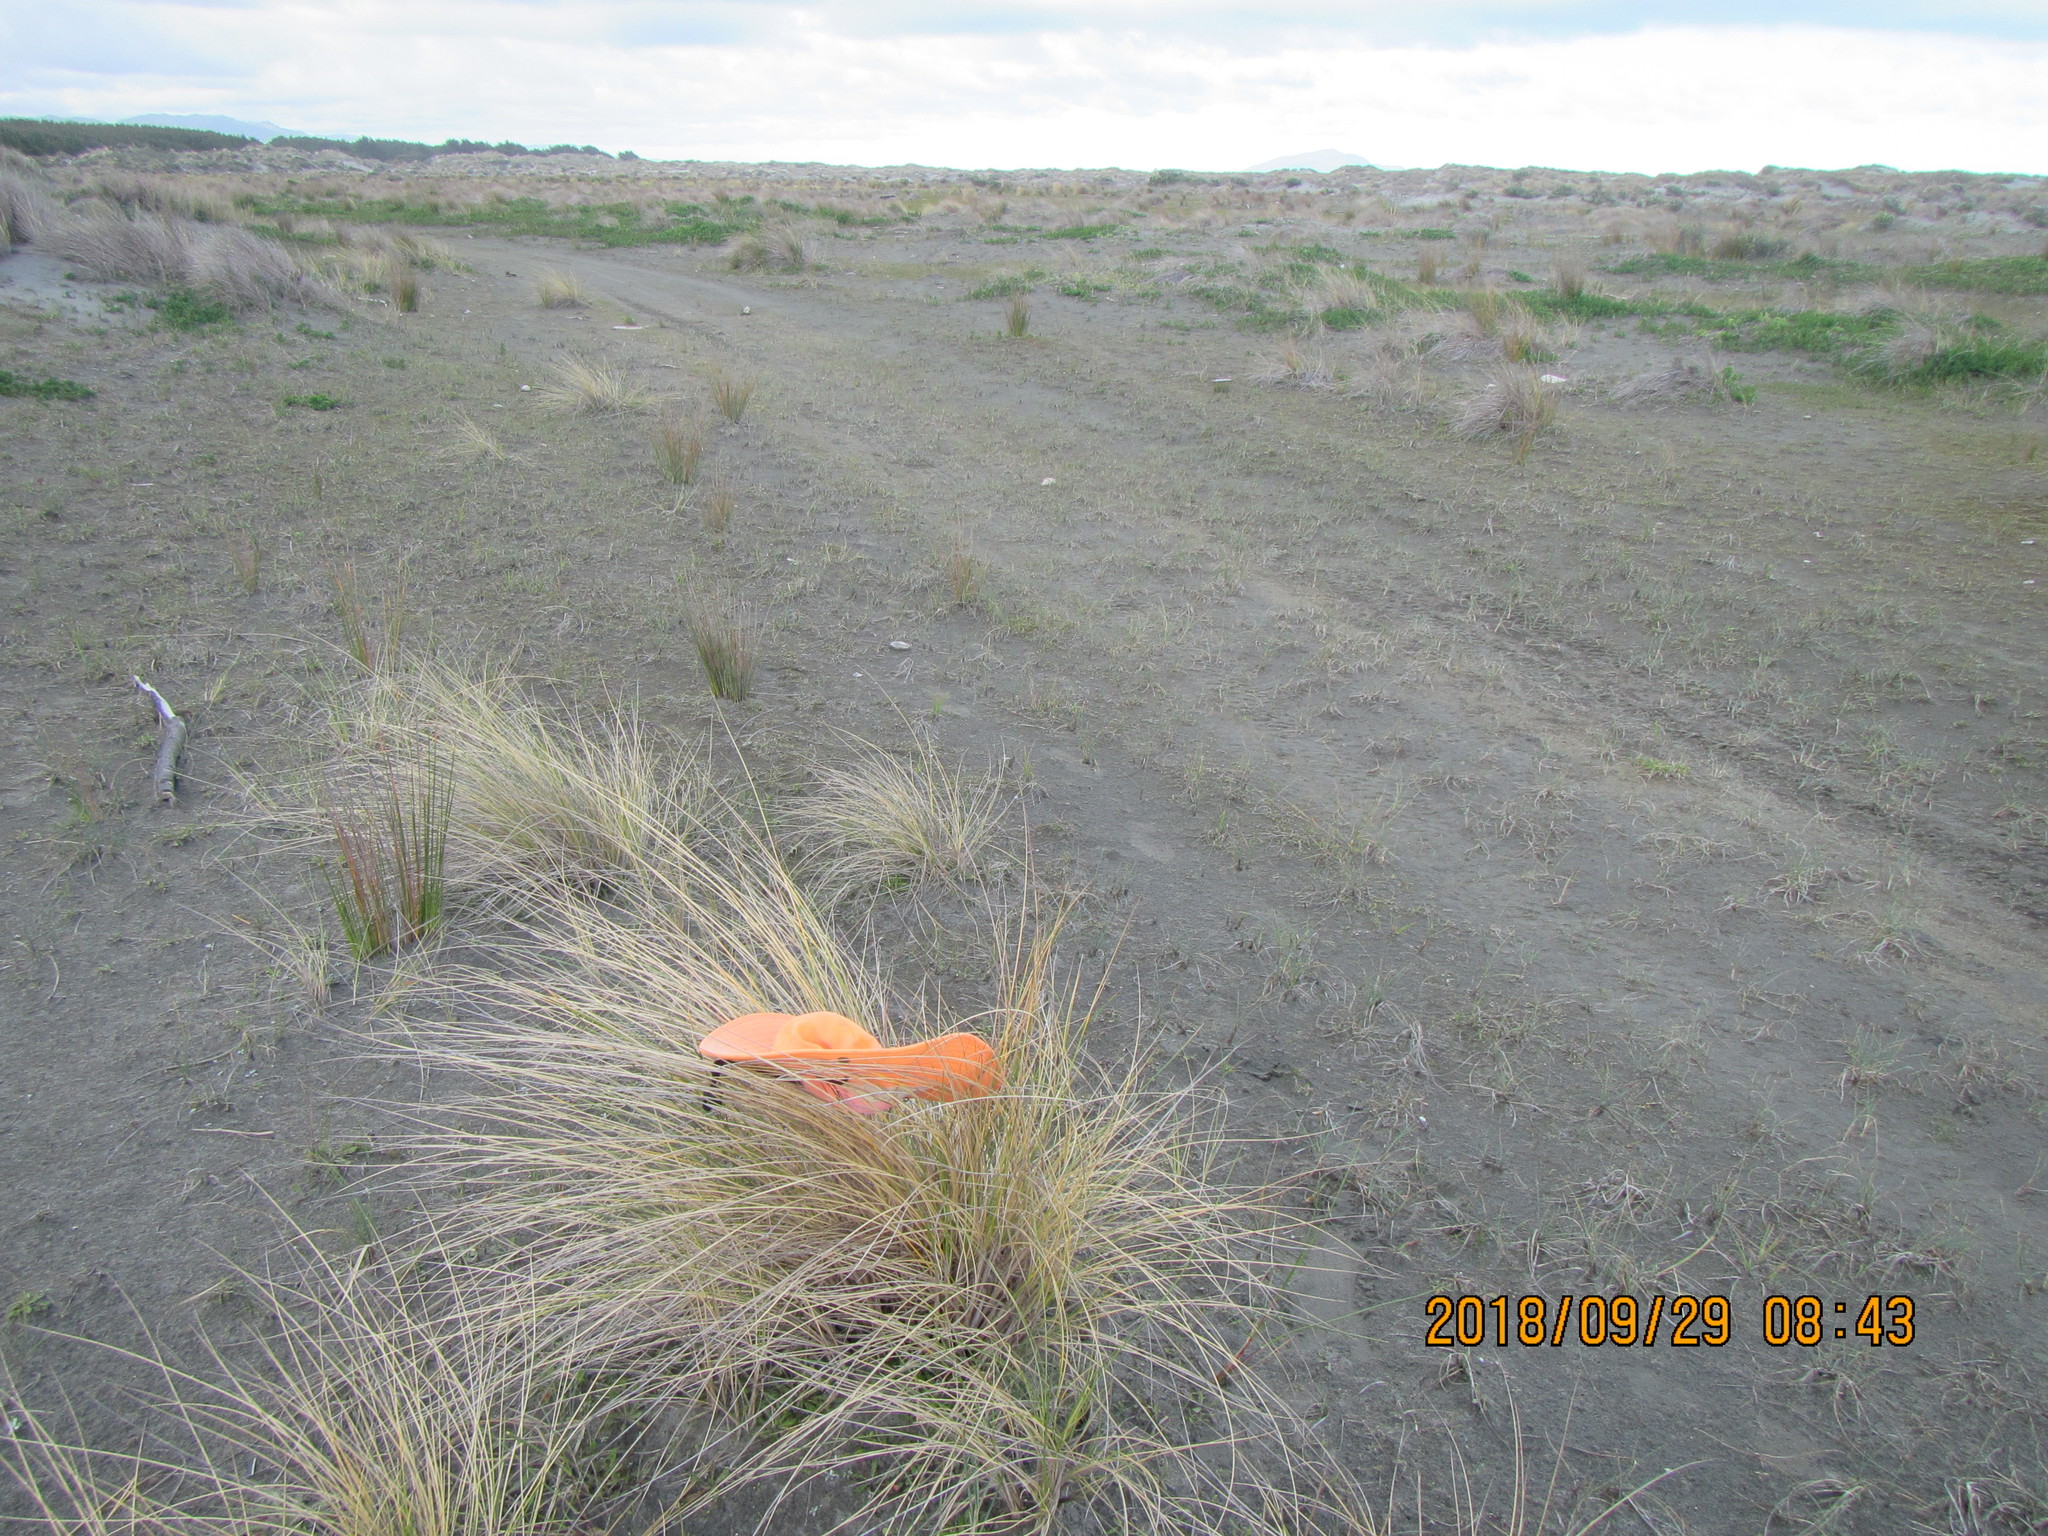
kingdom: Animalia
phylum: Arthropoda
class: Arachnida
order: Araneae
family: Theridiidae
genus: Steatoda
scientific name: Steatoda capensis
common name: Cobweb weaver
